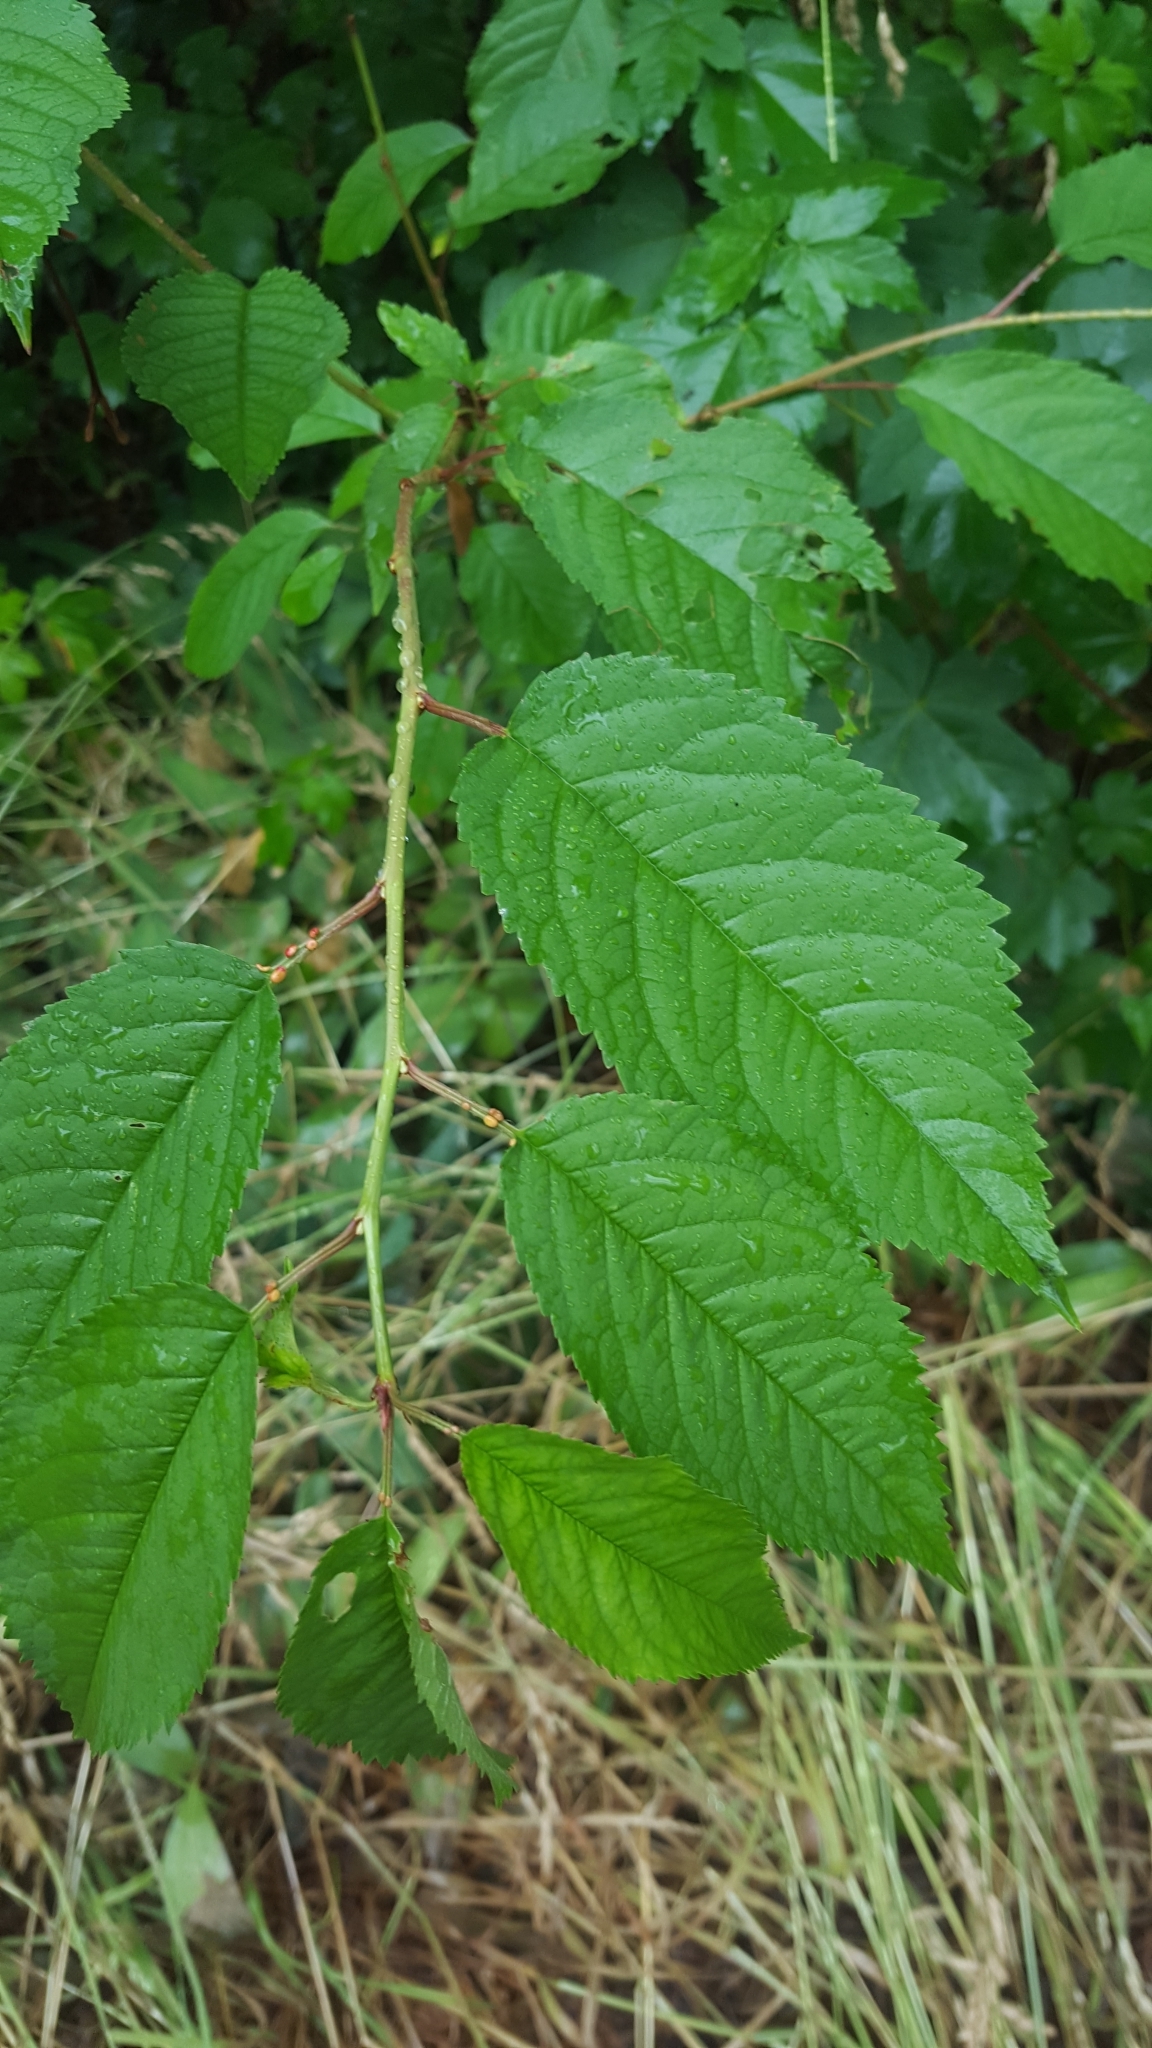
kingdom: Plantae
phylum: Tracheophyta
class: Magnoliopsida
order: Rosales
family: Rosaceae
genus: Prunus
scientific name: Prunus avium
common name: Sweet cherry
